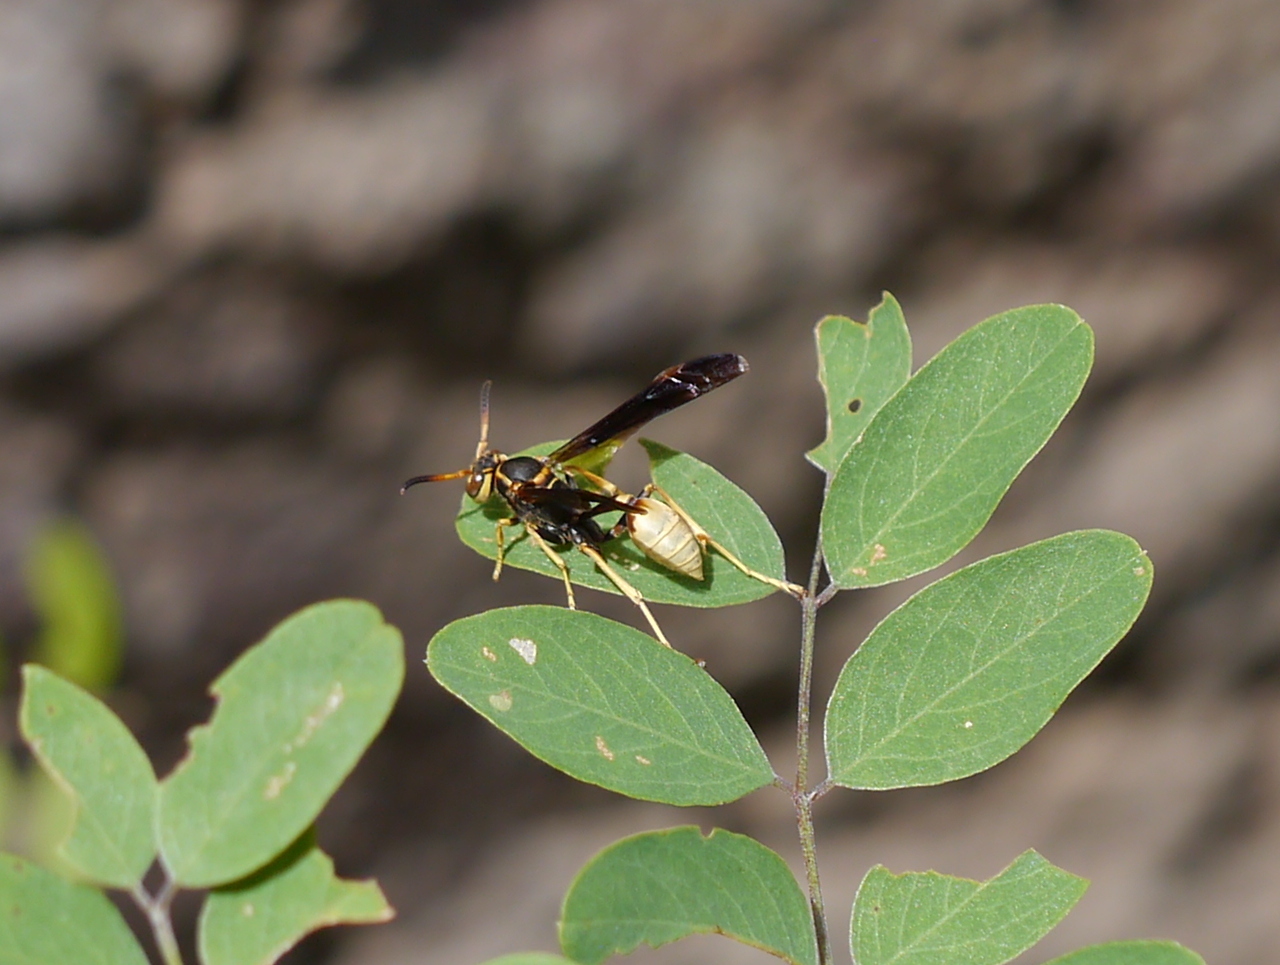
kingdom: Animalia
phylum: Arthropoda
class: Insecta
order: Hymenoptera
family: Vespidae
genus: Mischocyttarus
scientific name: Mischocyttarus navajo
